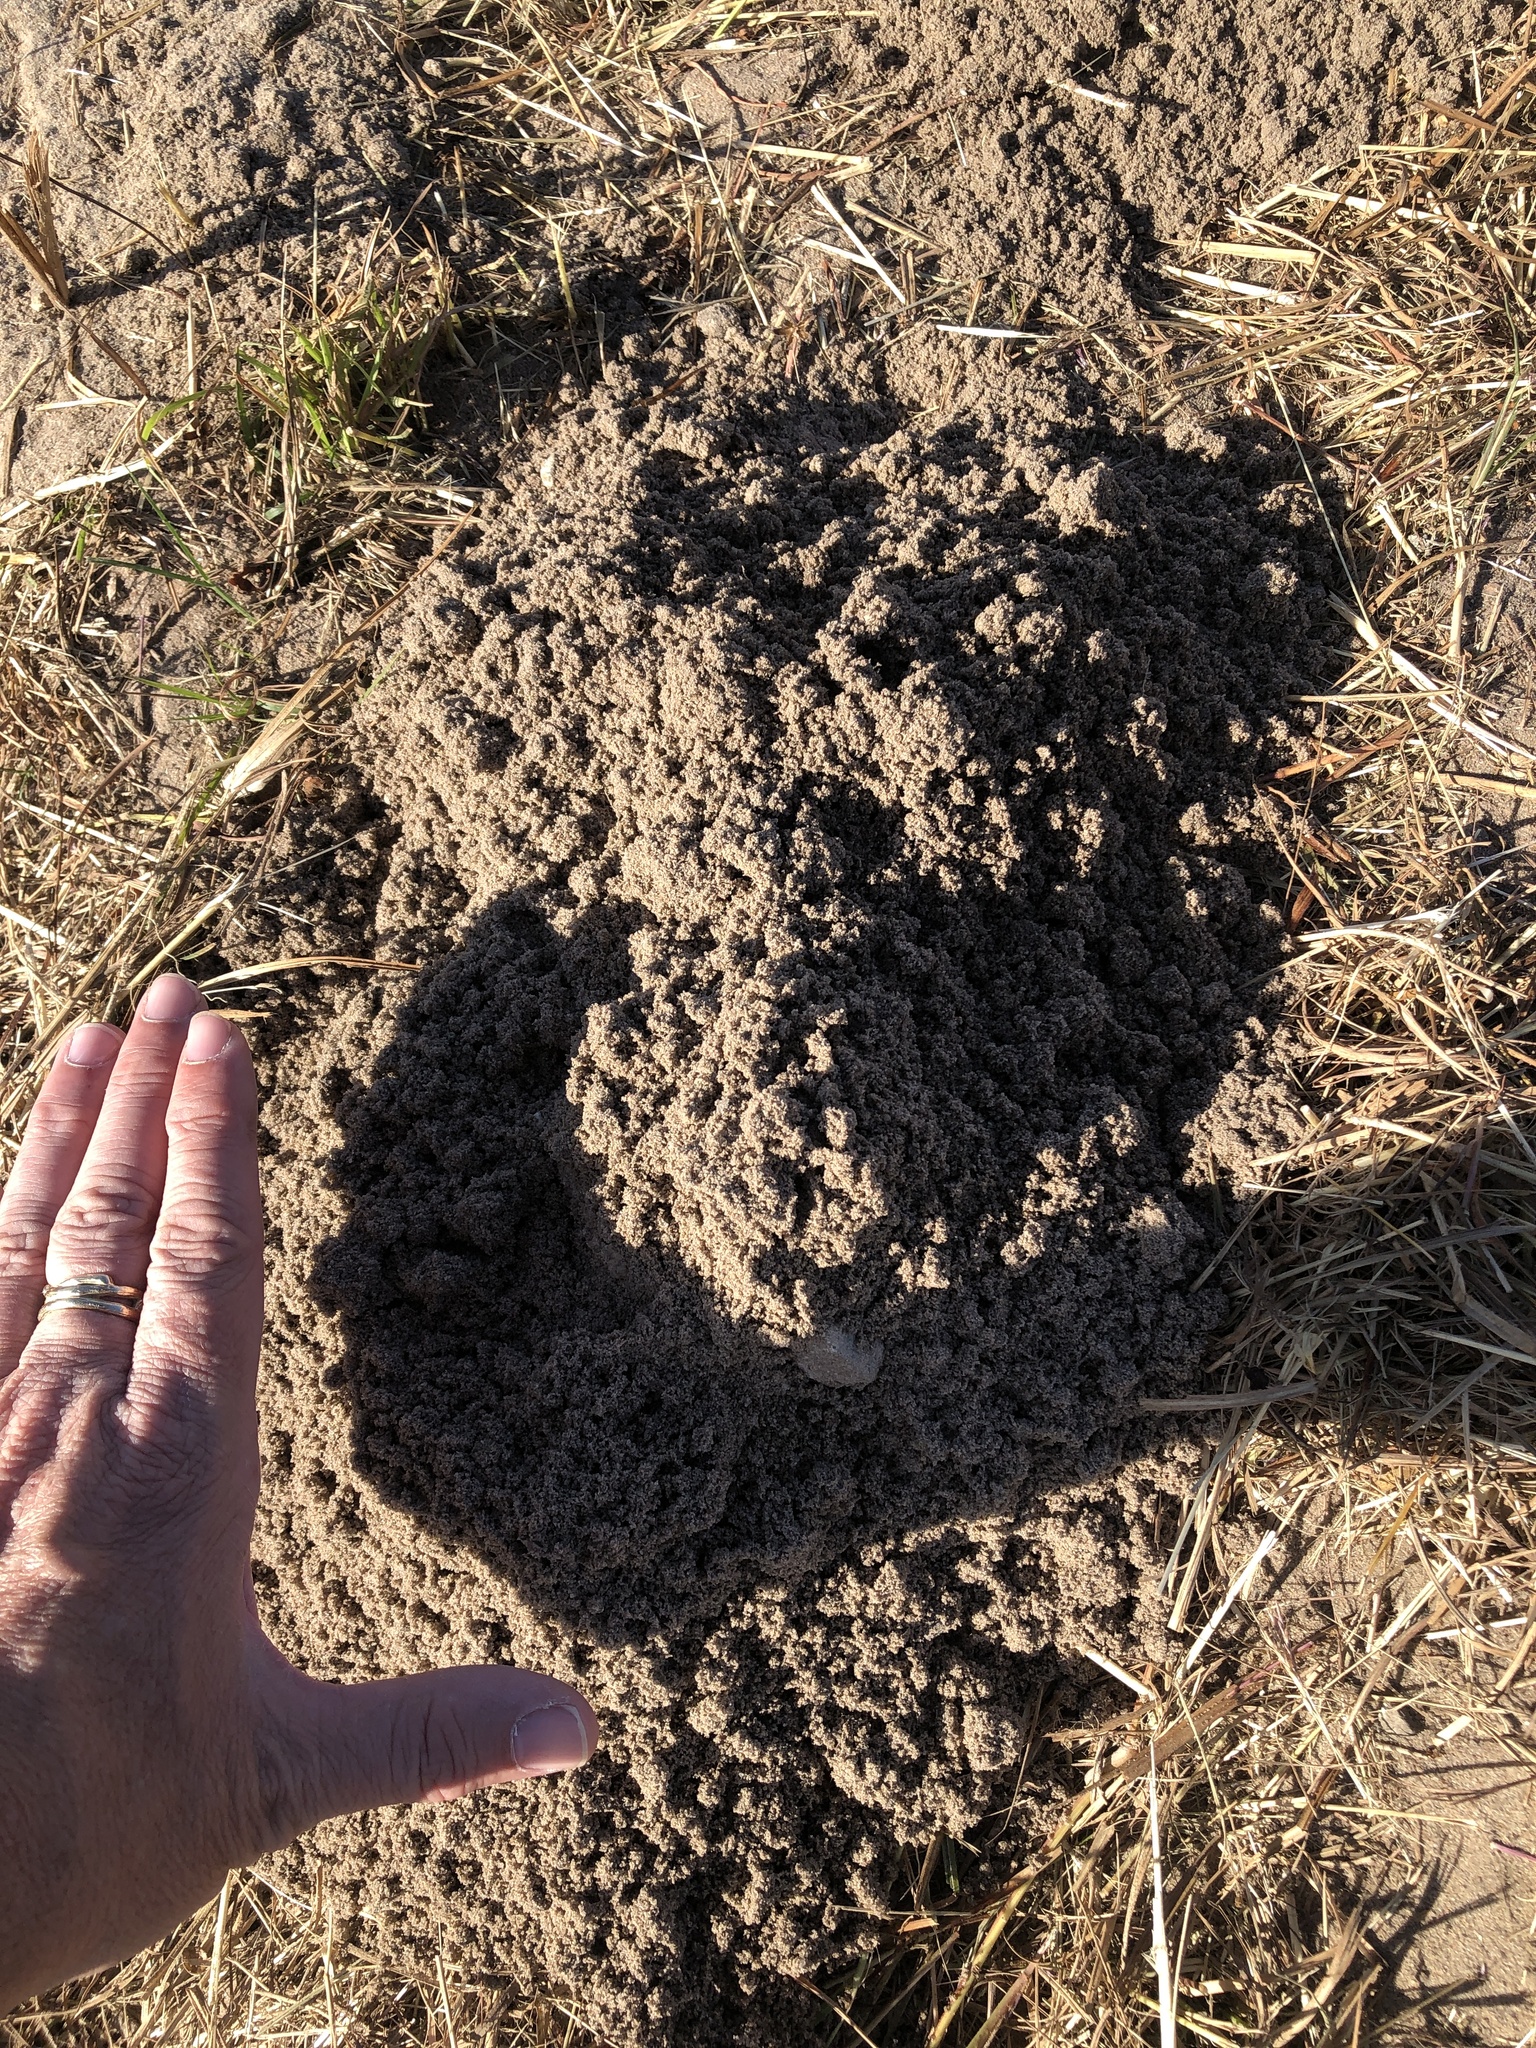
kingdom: Animalia
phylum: Chordata
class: Mammalia
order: Rodentia
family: Geomyidae
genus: Geomys
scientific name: Geomys attwateri
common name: Attwater's pocket gopher
